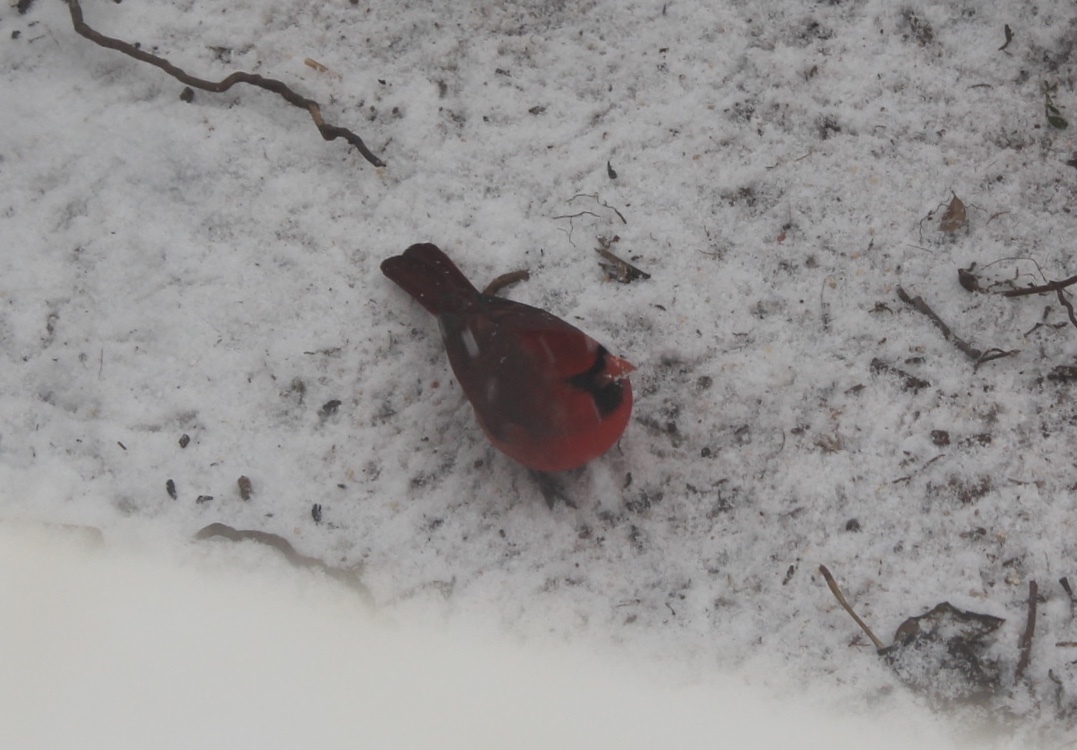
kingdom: Animalia
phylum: Chordata
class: Aves
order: Passeriformes
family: Cardinalidae
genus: Cardinalis
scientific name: Cardinalis cardinalis
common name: Northern cardinal
